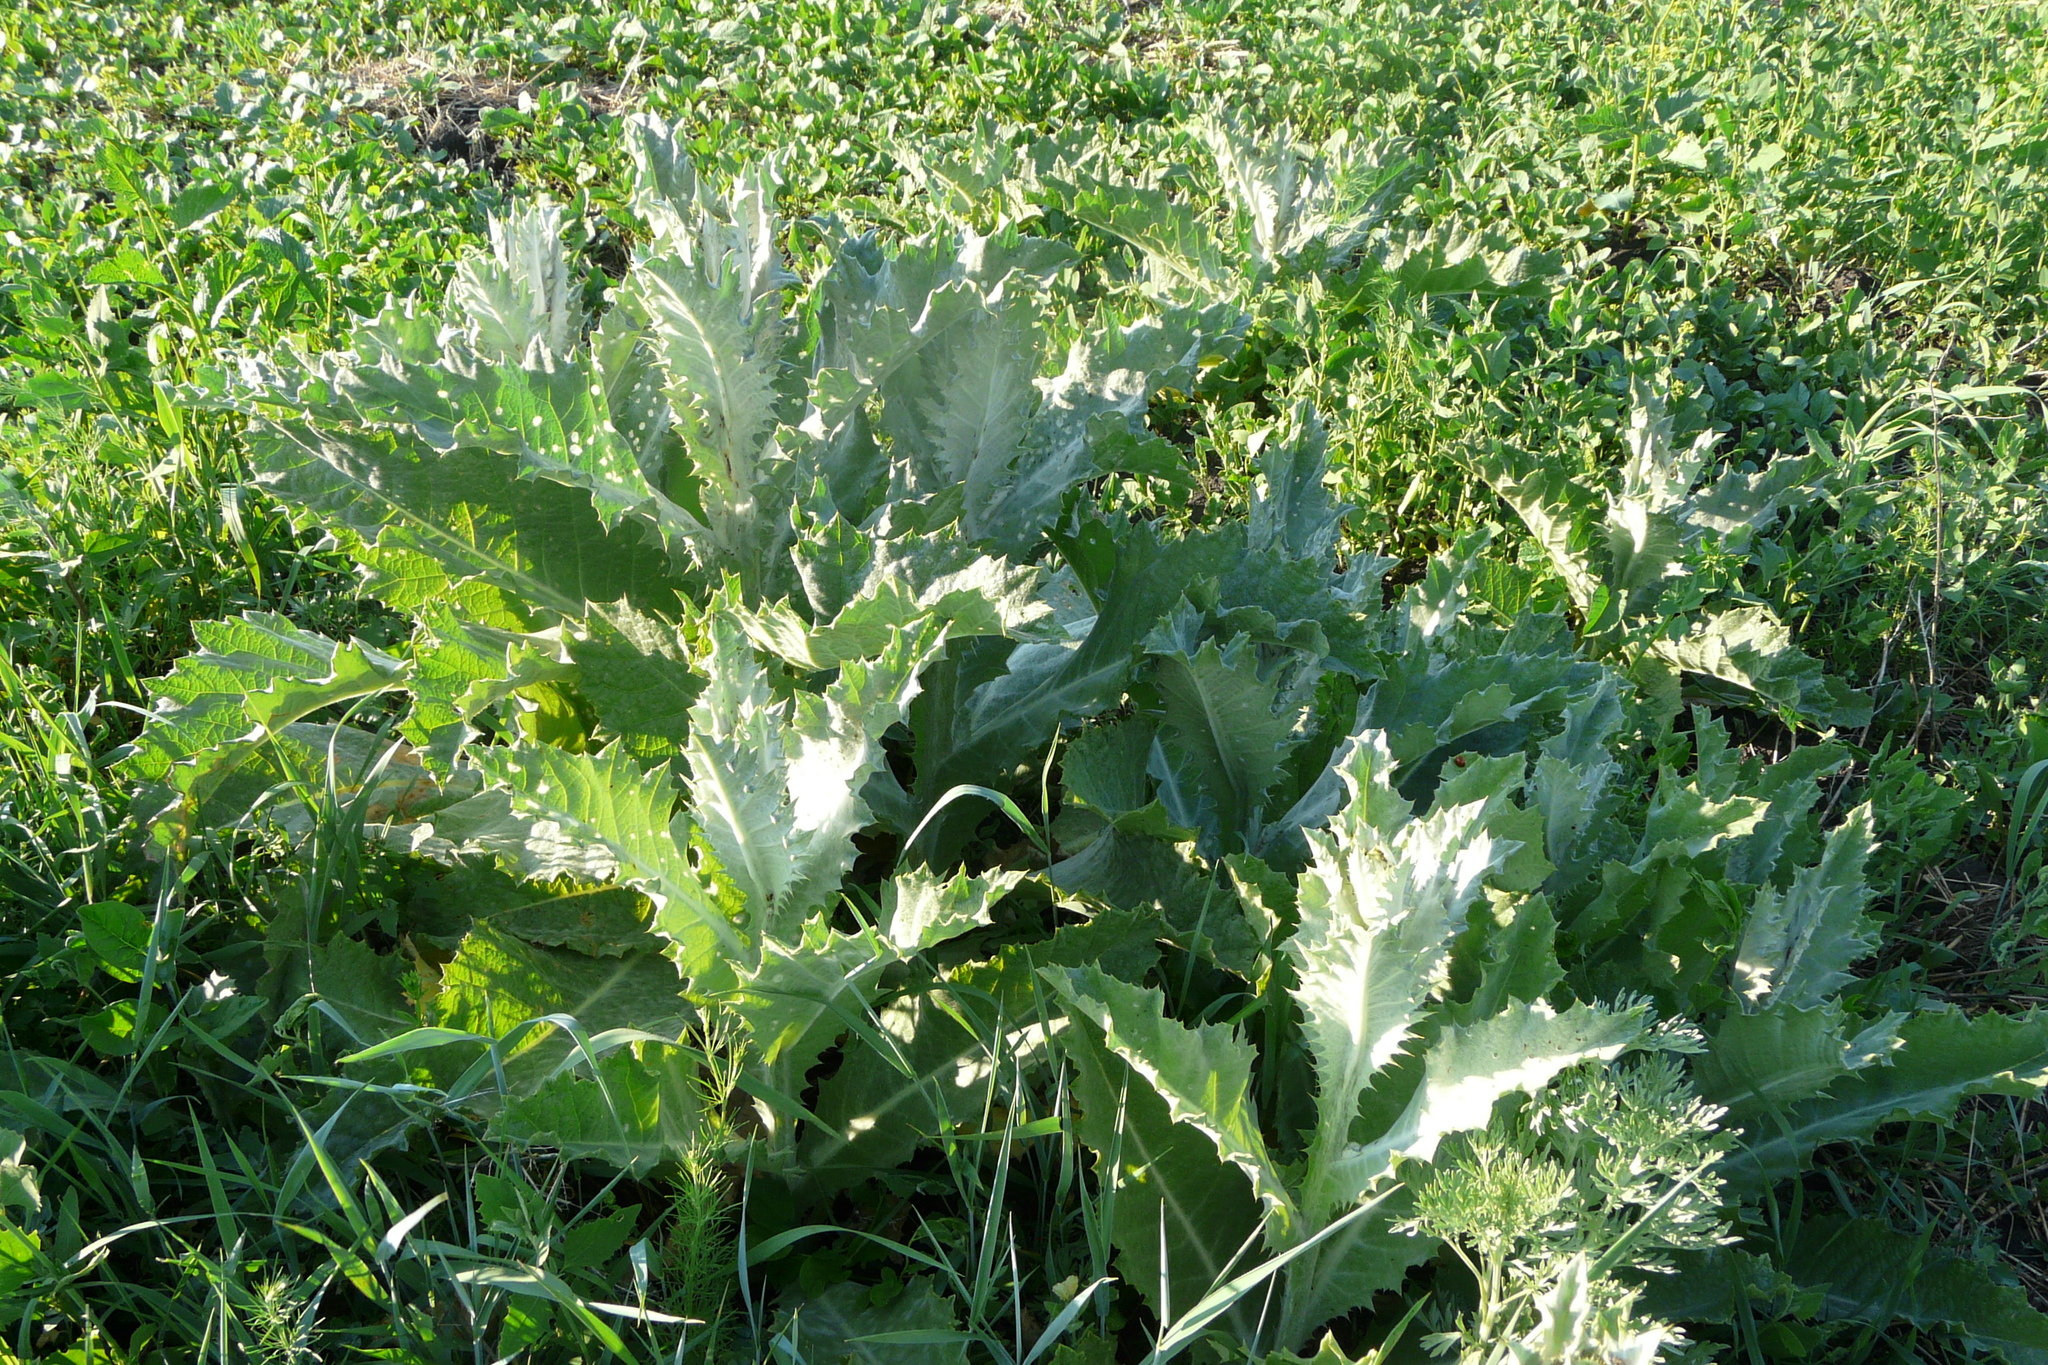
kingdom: Plantae
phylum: Tracheophyta
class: Magnoliopsida
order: Asterales
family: Asteraceae
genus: Onopordum
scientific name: Onopordum acanthium
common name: Scotch thistle
